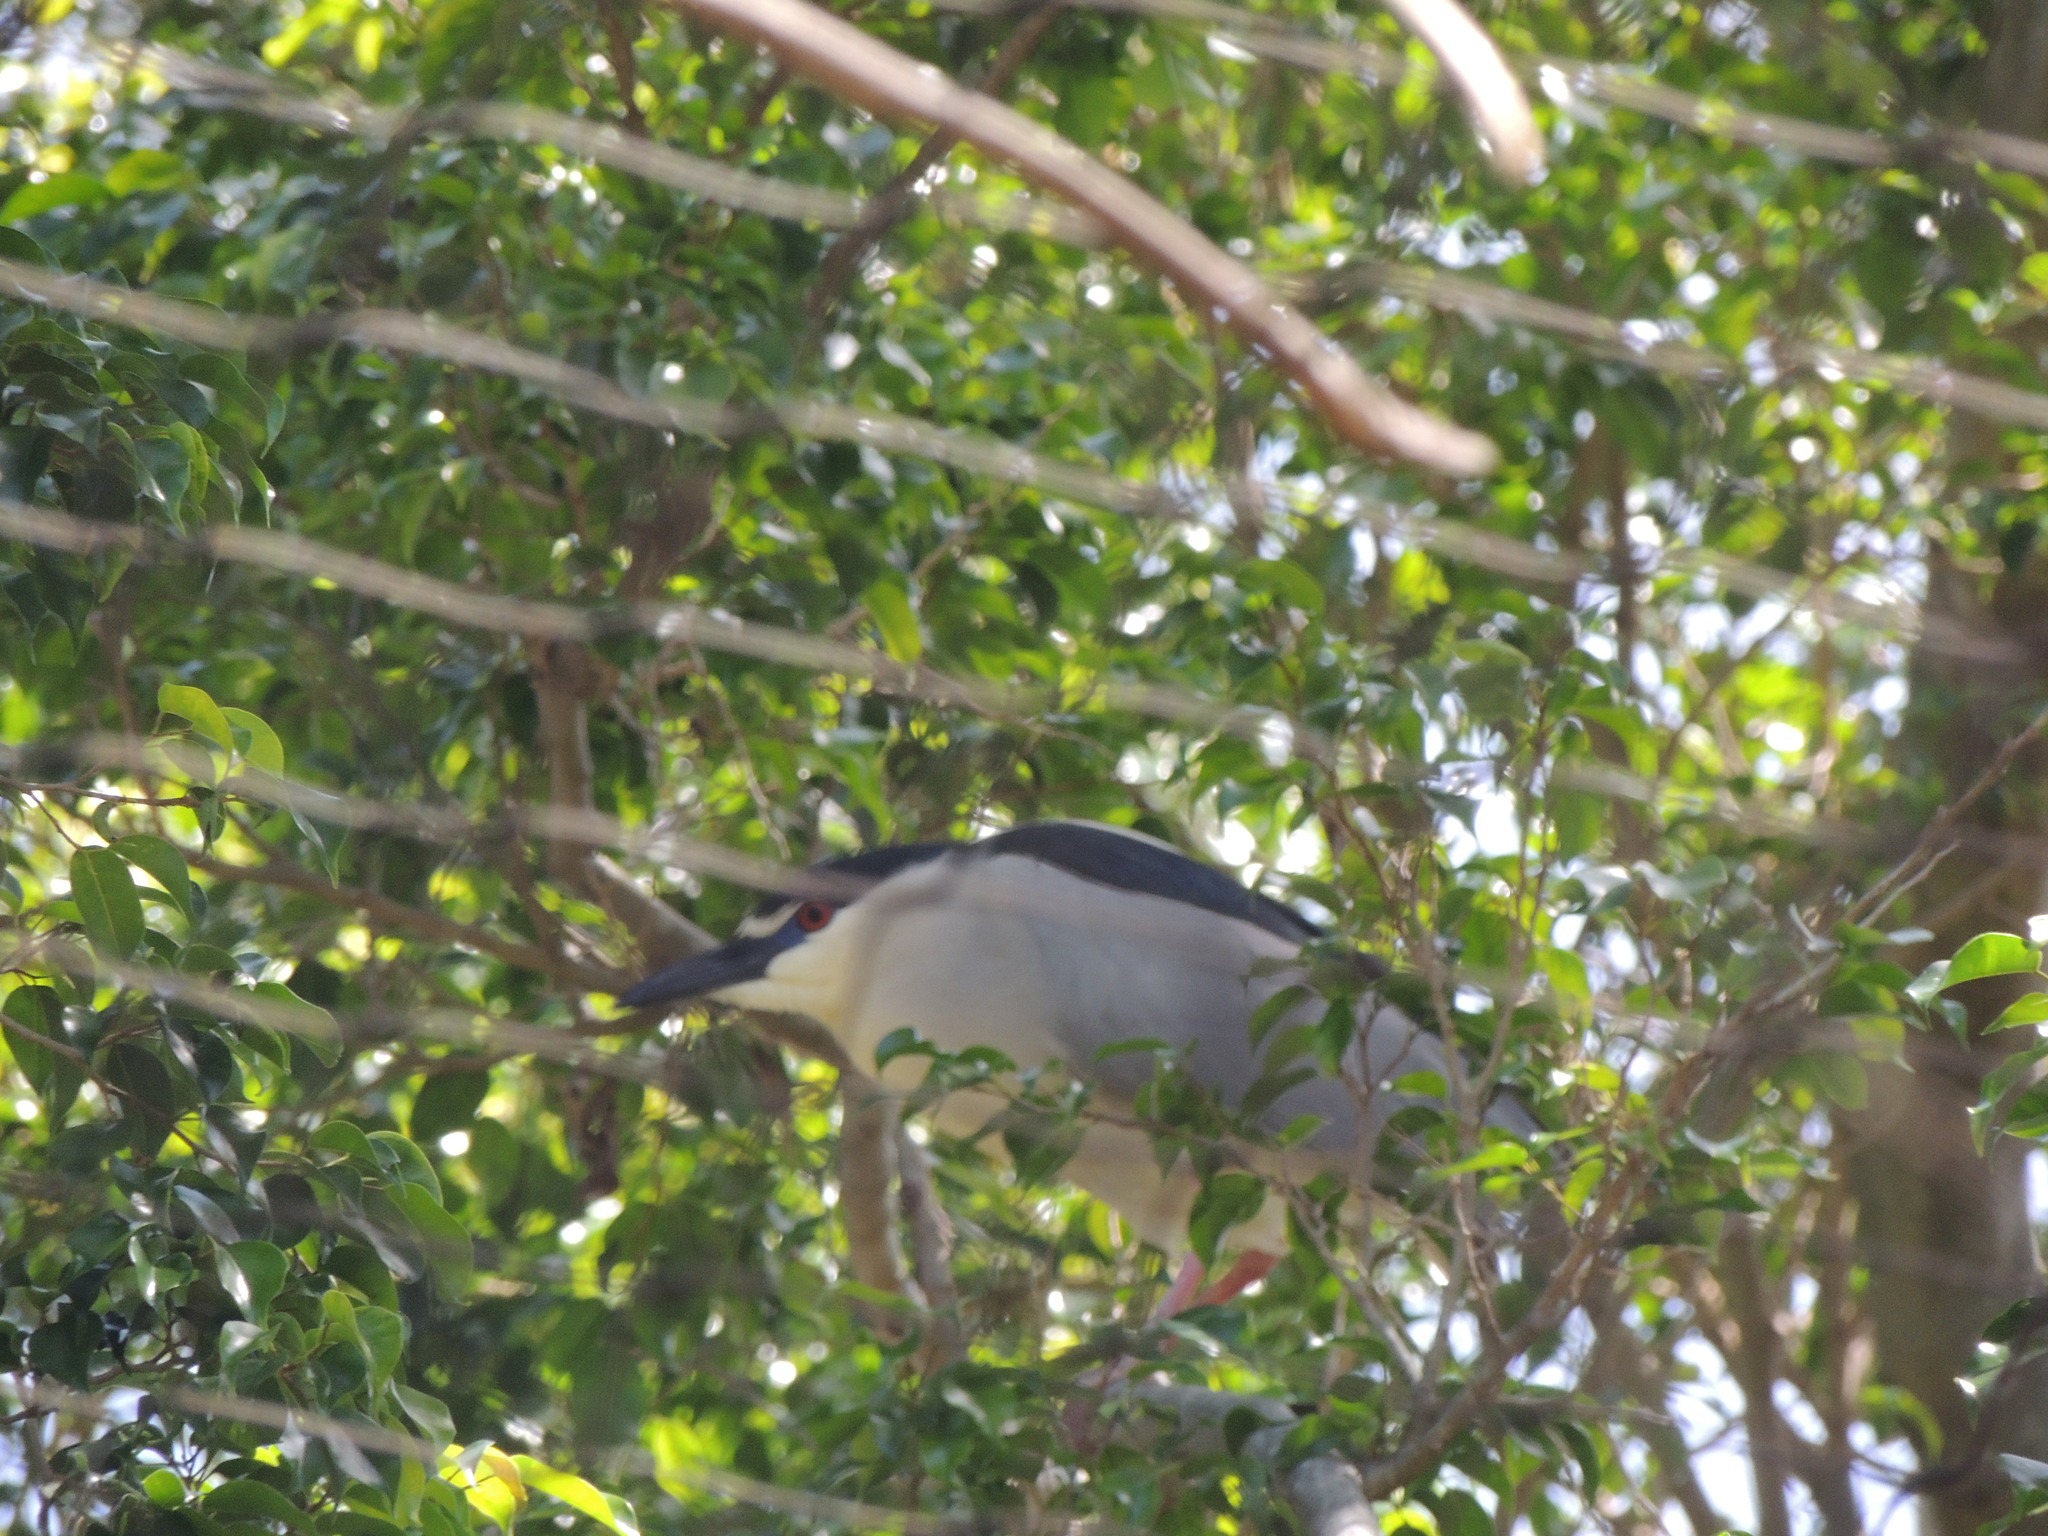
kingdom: Animalia
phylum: Chordata
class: Aves
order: Pelecaniformes
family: Ardeidae
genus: Nycticorax
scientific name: Nycticorax nycticorax
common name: Black-crowned night heron
